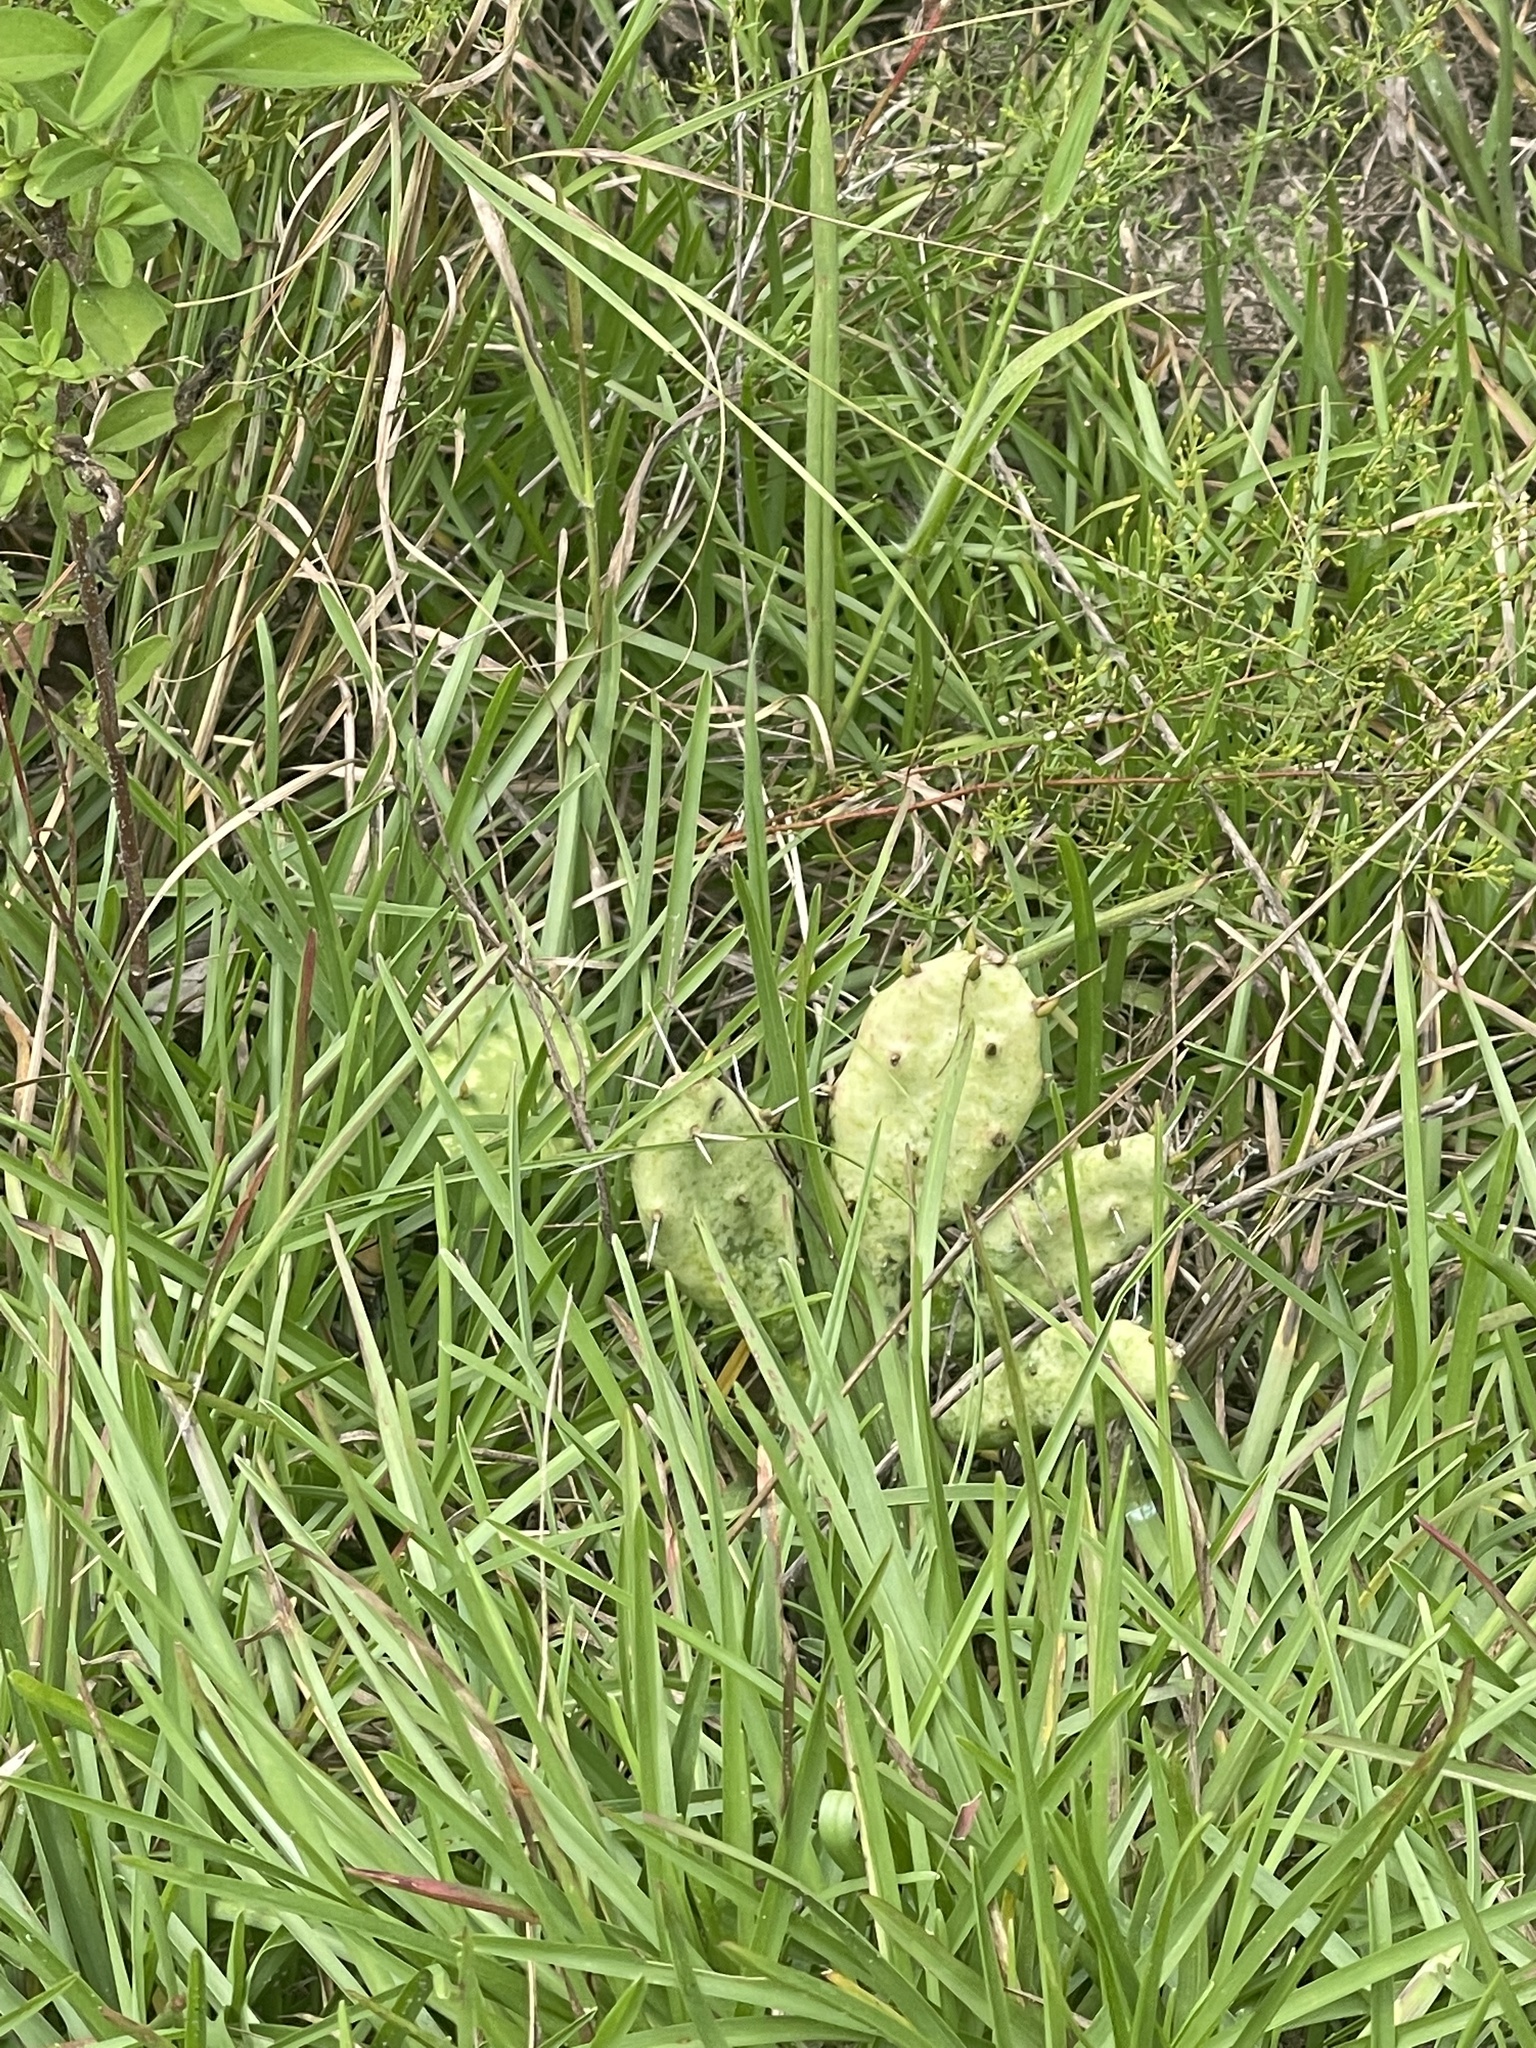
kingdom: Plantae
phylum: Tracheophyta
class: Magnoliopsida
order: Caryophyllales
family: Cactaceae
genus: Opuntia
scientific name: Opuntia drummondii
